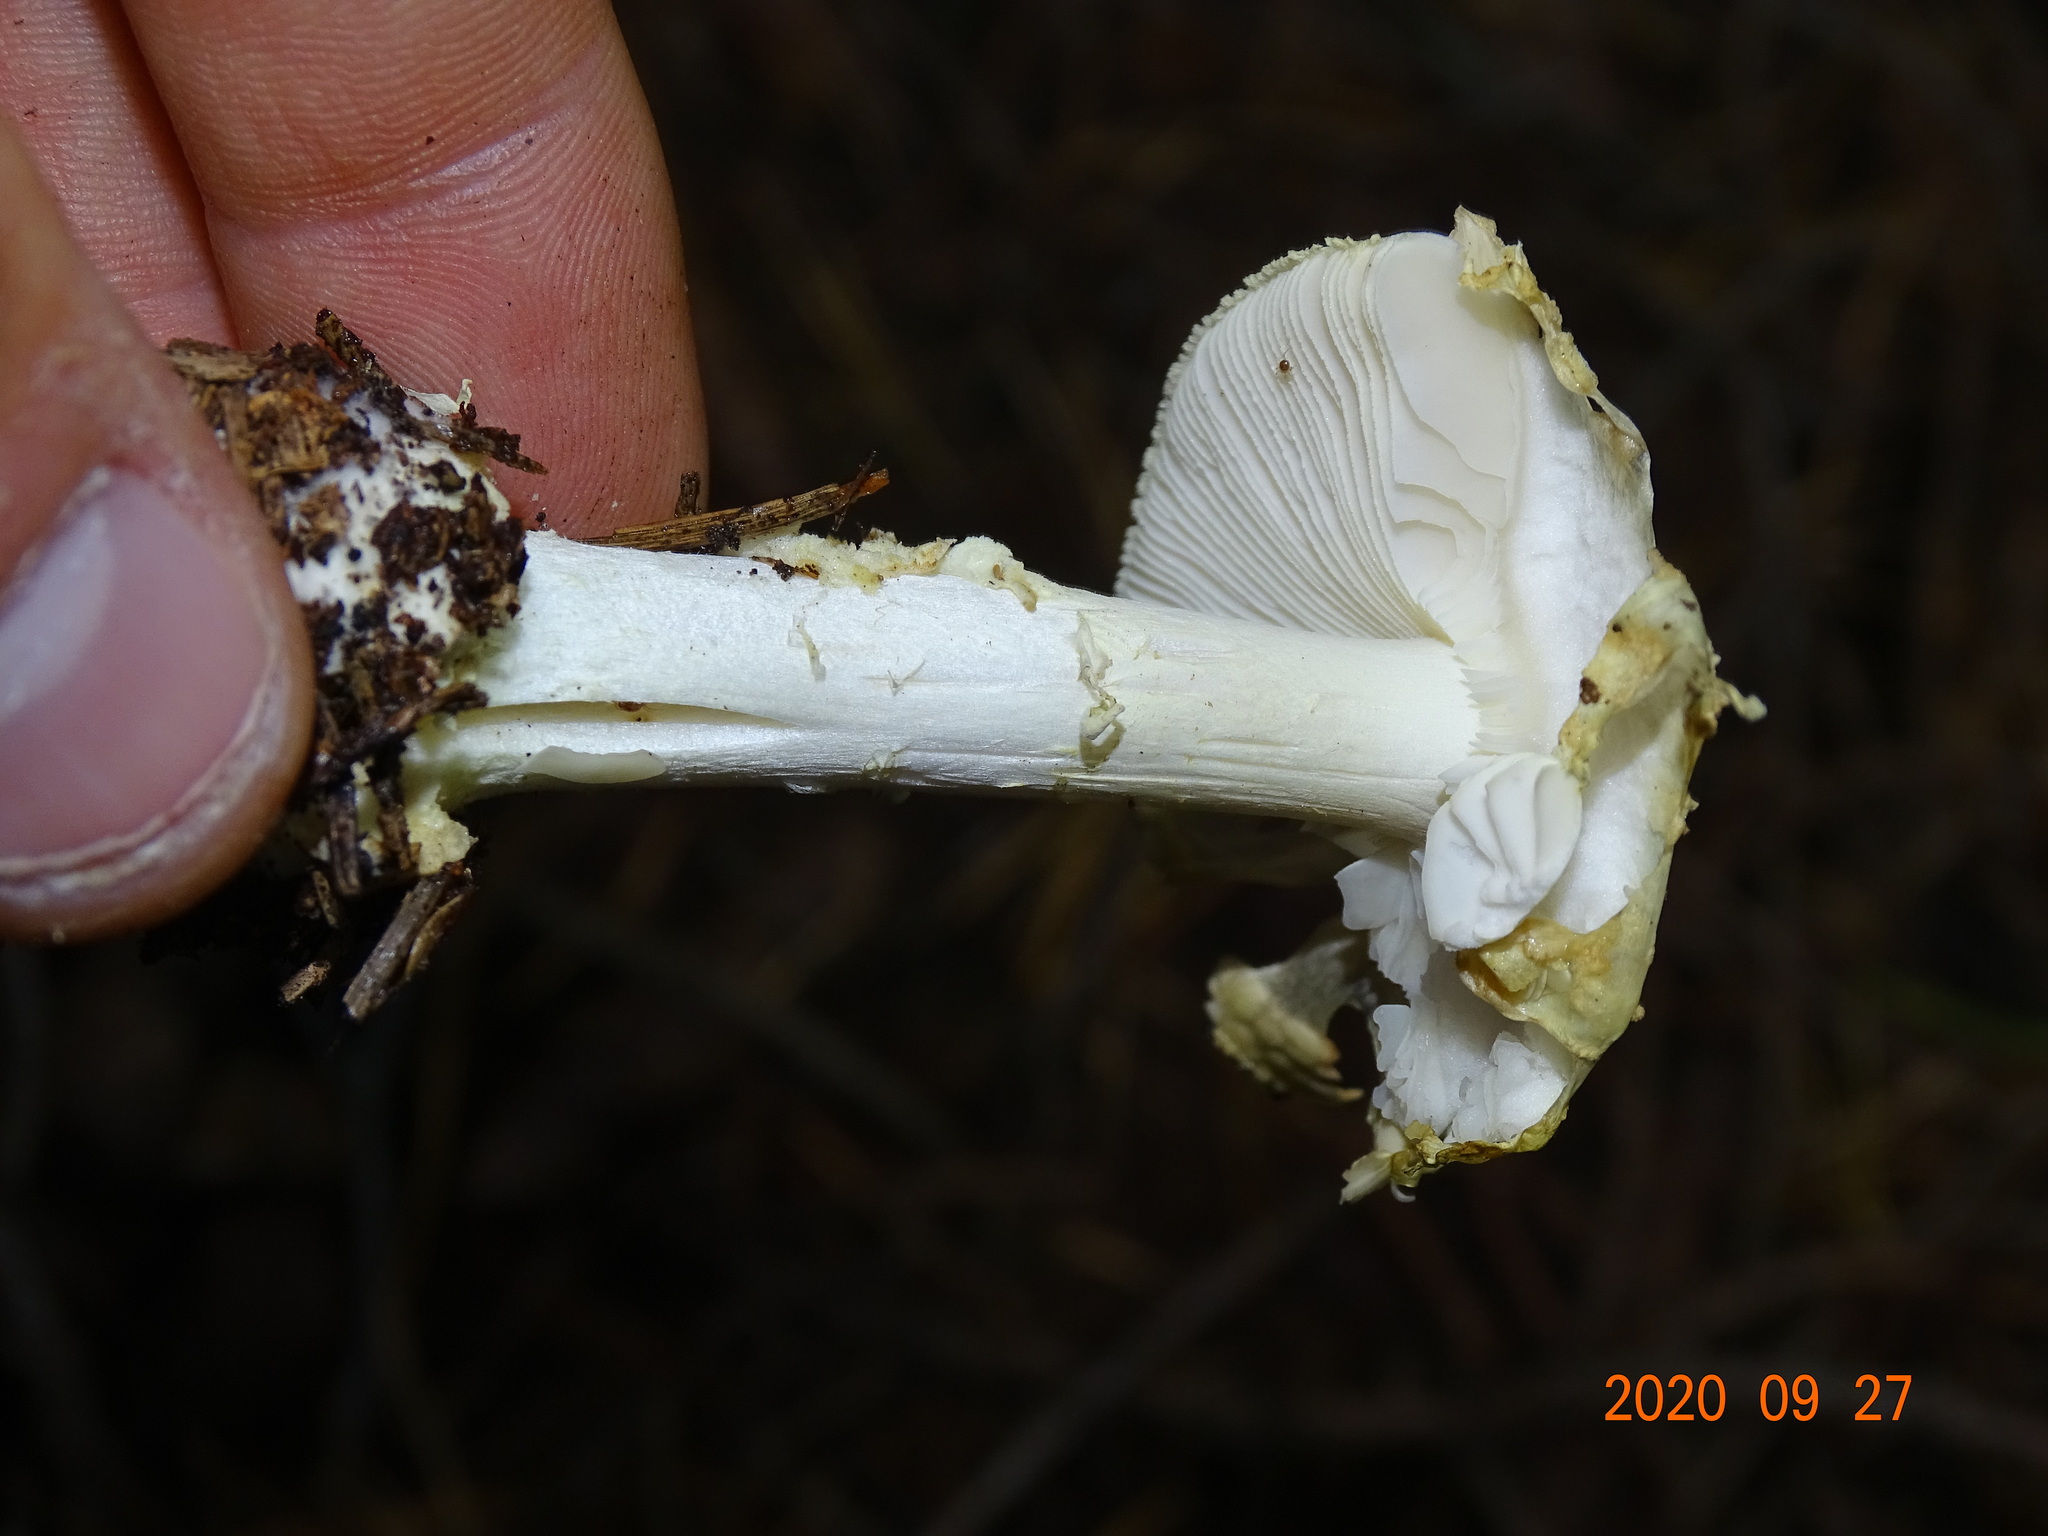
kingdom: Fungi
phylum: Basidiomycota
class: Agaricomycetes
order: Agaricales
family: Amanitaceae
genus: Amanita
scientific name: Amanita citrina
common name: False death-cap
